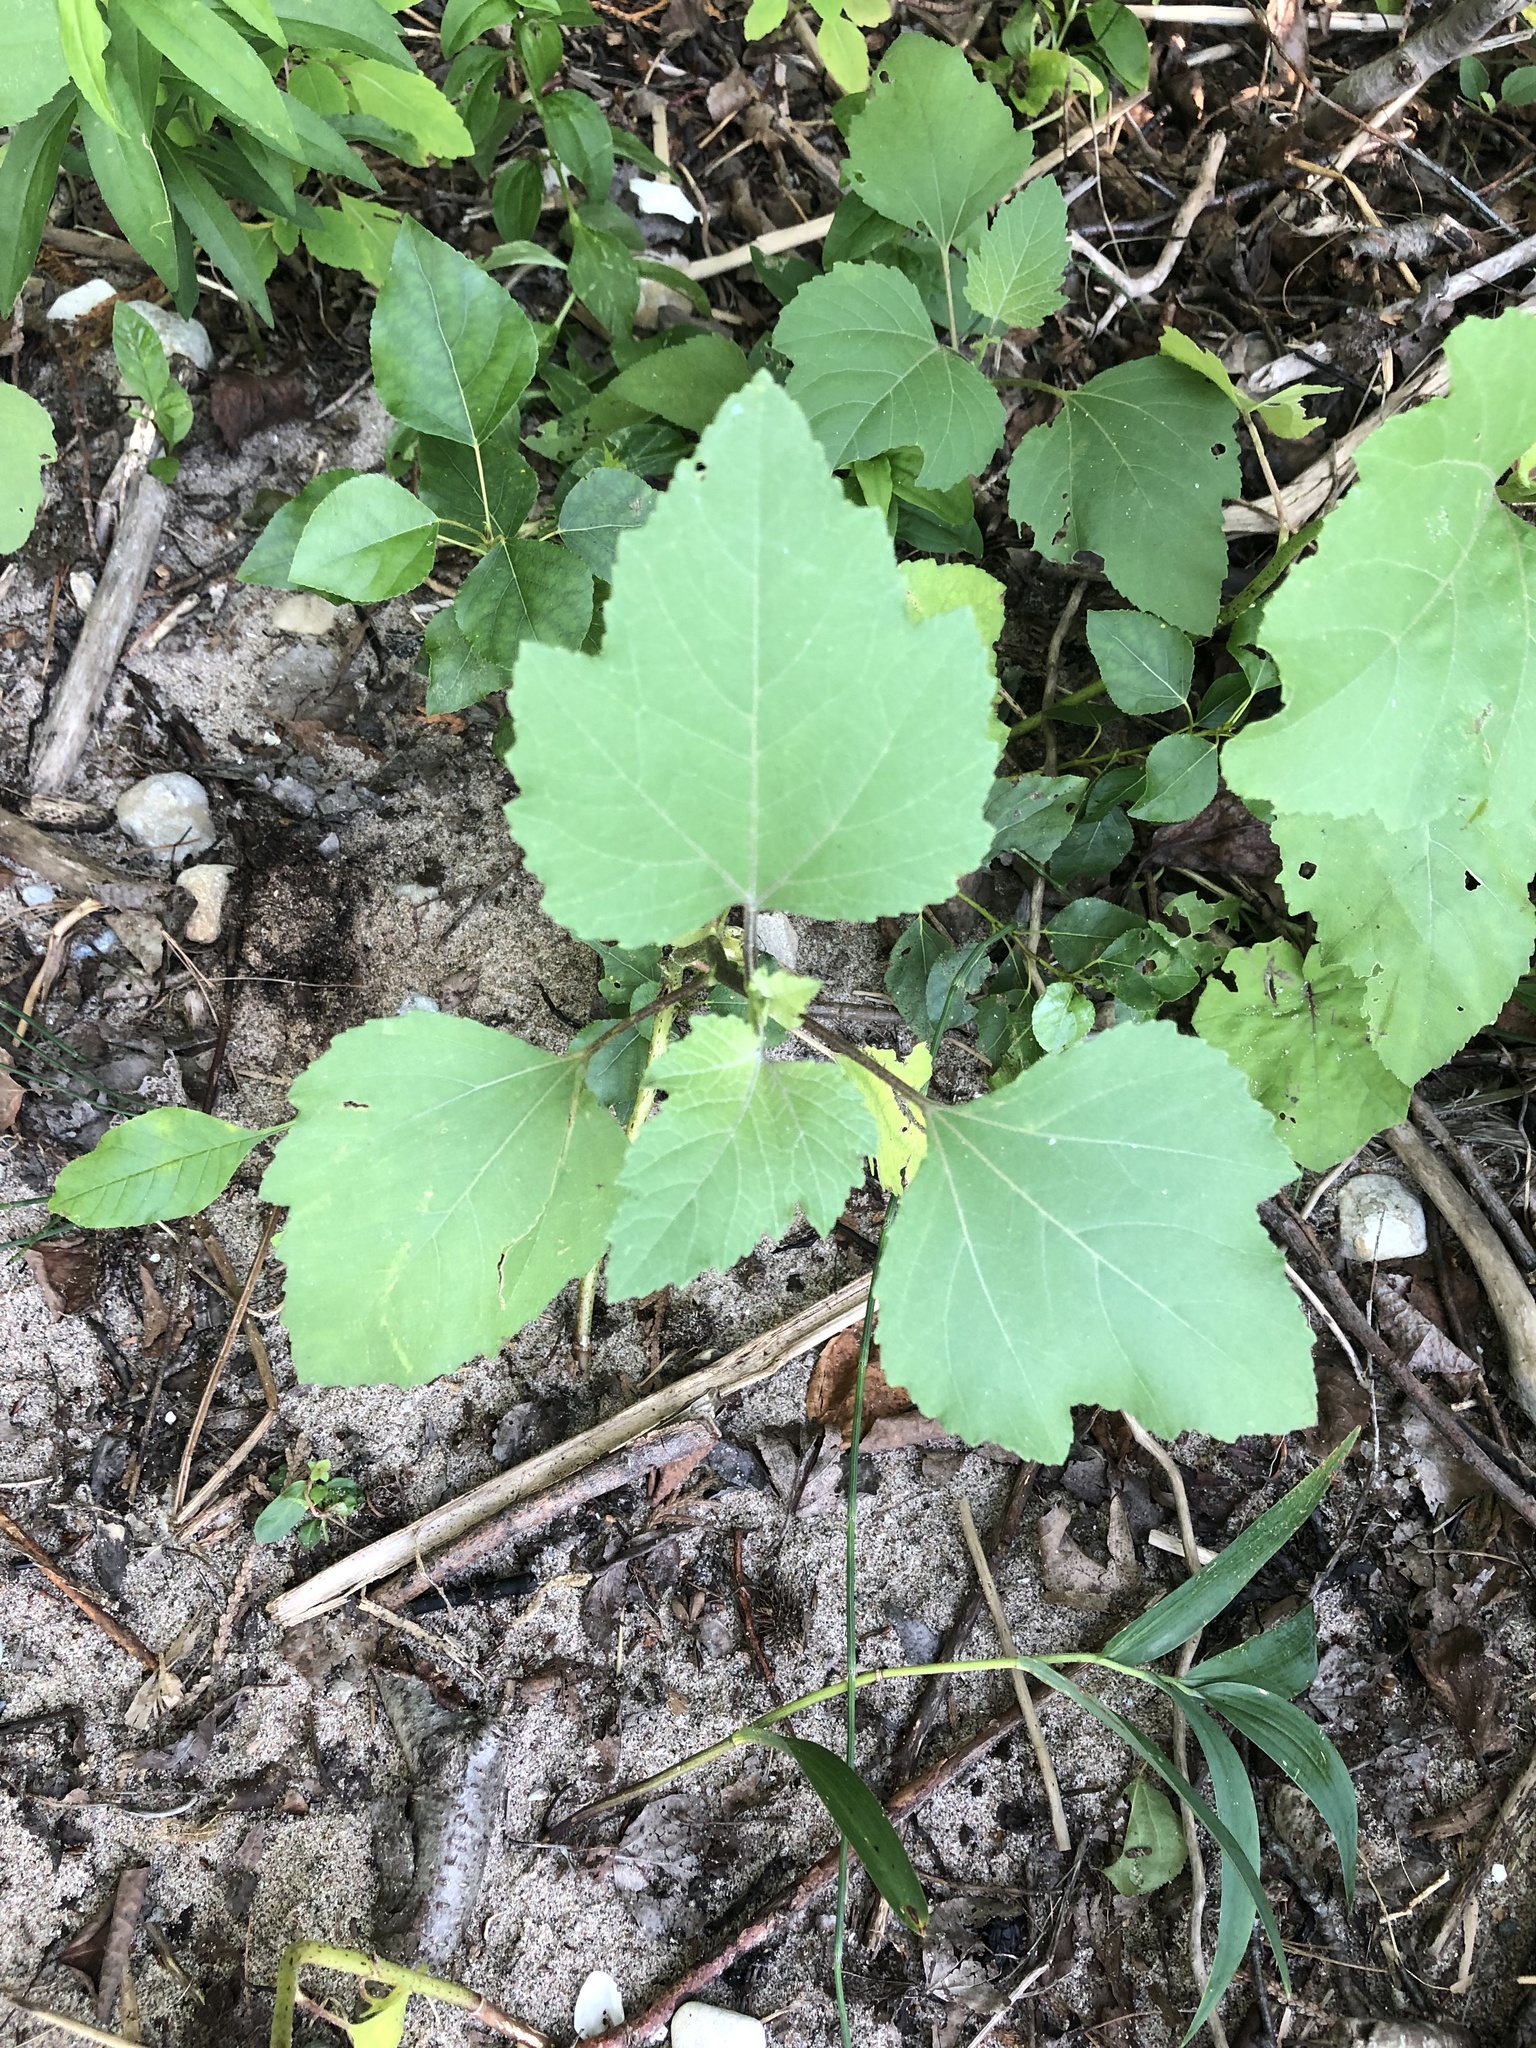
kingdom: Plantae
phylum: Tracheophyta
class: Magnoliopsida
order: Asterales
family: Asteraceae
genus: Xanthium
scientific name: Xanthium strumarium
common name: Rough cocklebur
